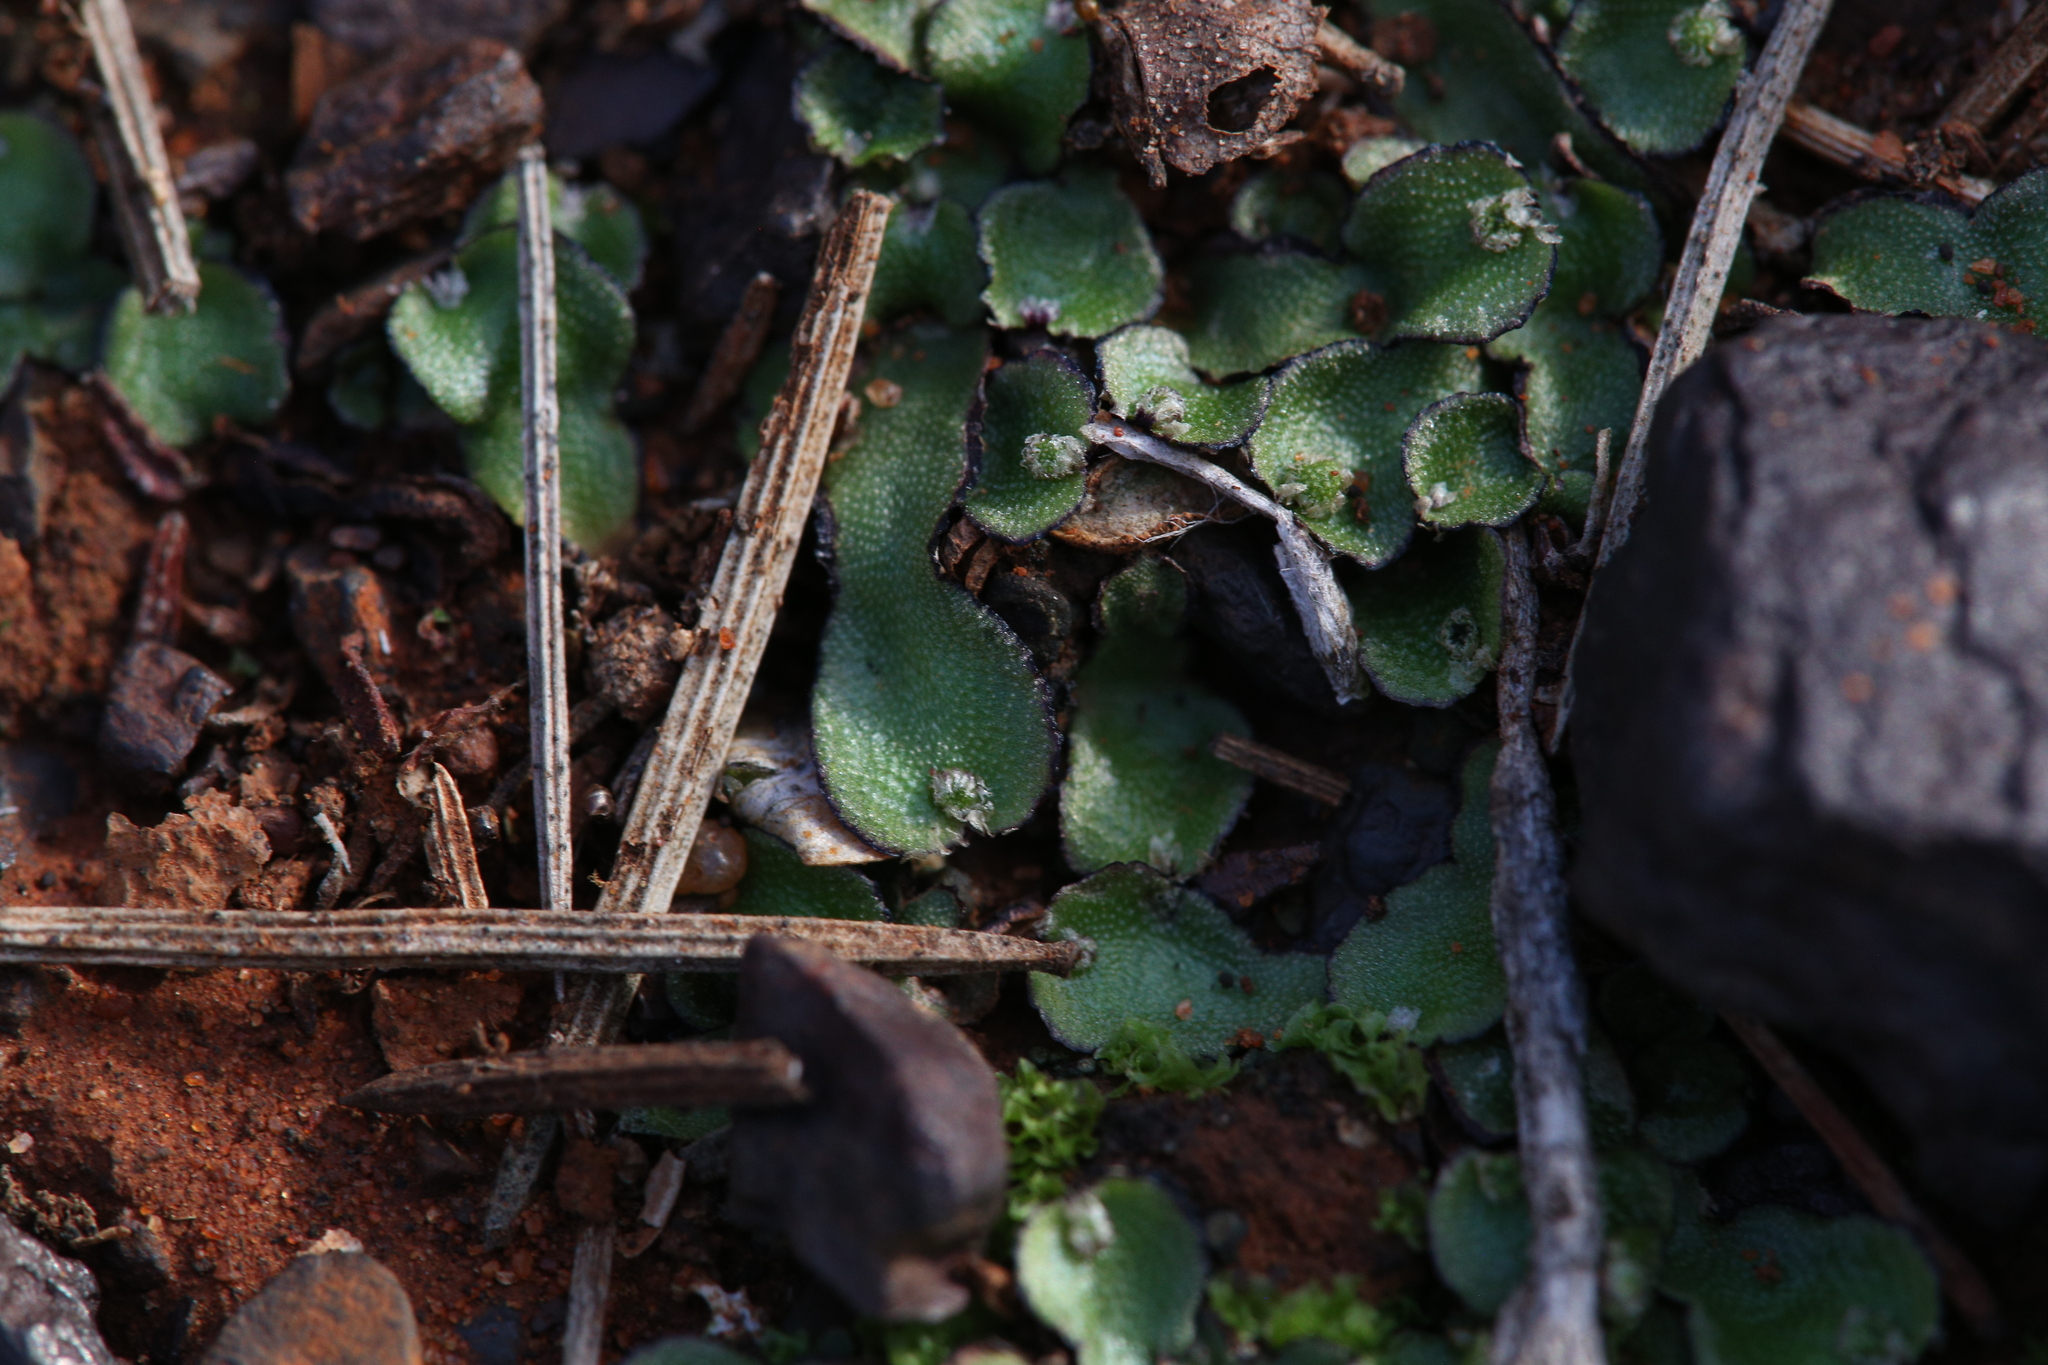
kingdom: Plantae
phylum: Marchantiophyta
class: Marchantiopsida
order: Marchantiales
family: Aytoniaceae
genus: Asterella
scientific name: Asterella drummondii
